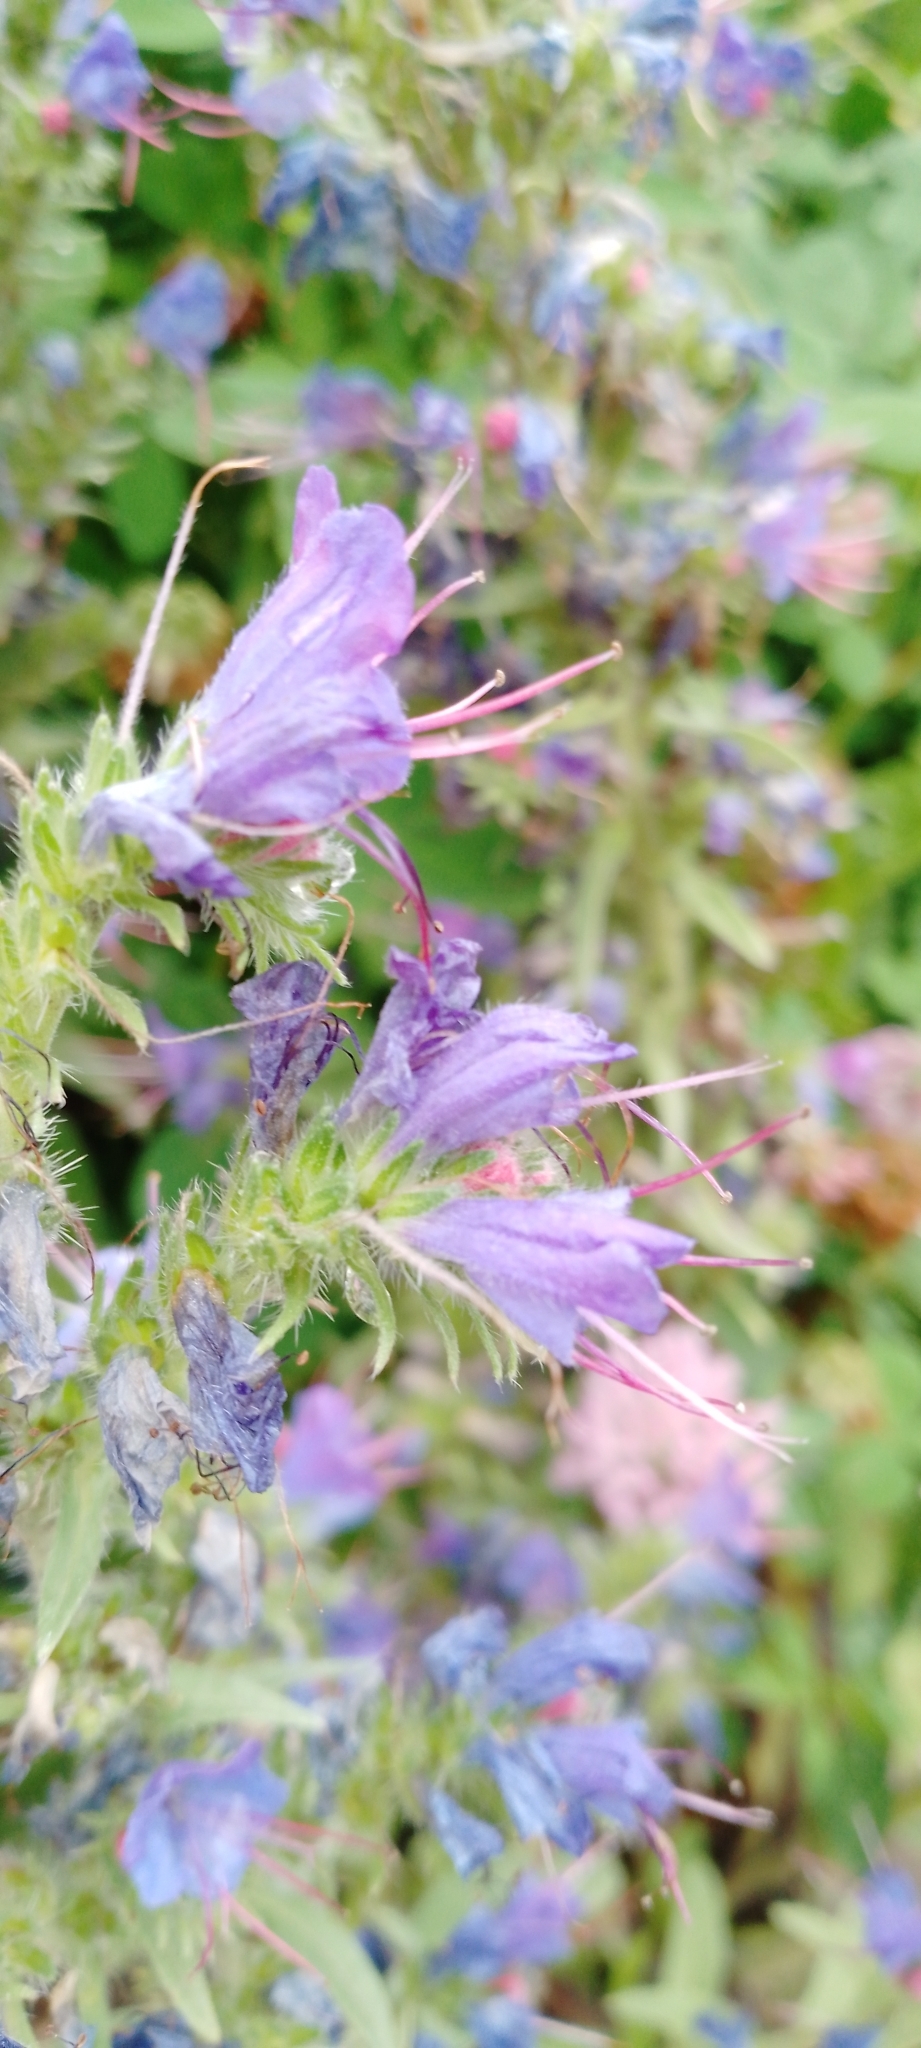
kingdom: Plantae
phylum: Tracheophyta
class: Magnoliopsida
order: Boraginales
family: Boraginaceae
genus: Echium
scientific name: Echium vulgare
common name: Common viper's bugloss
